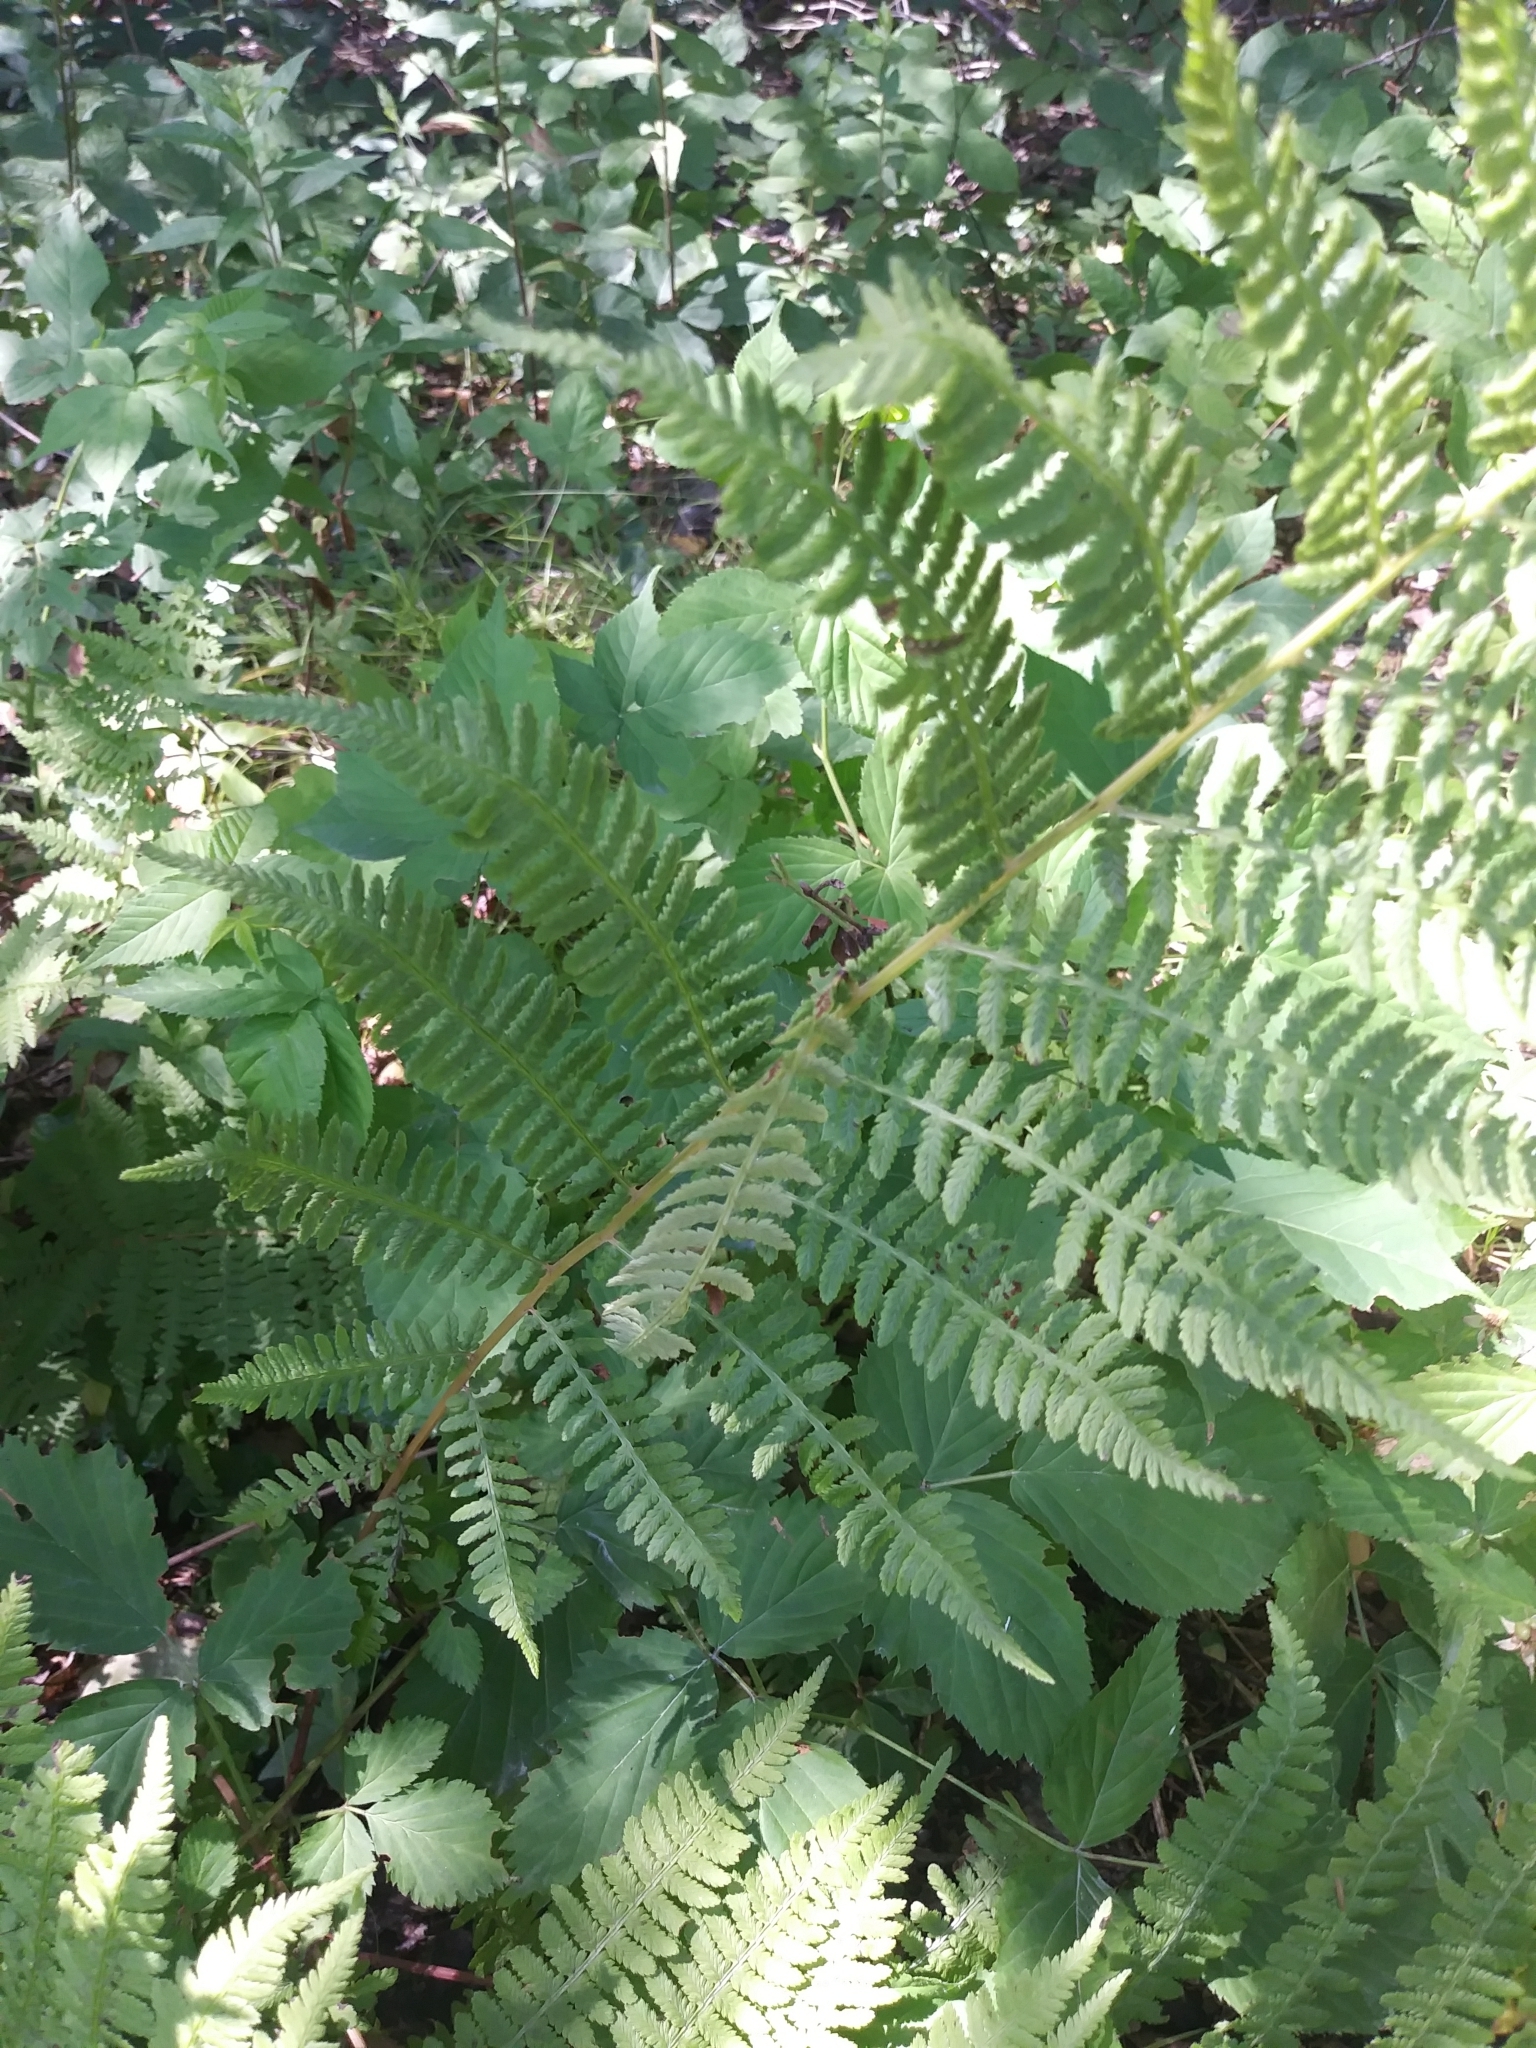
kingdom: Plantae
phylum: Tracheophyta
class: Polypodiopsida
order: Polypodiales
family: Athyriaceae
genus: Athyrium
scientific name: Athyrium angustum
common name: Northern lady fern
